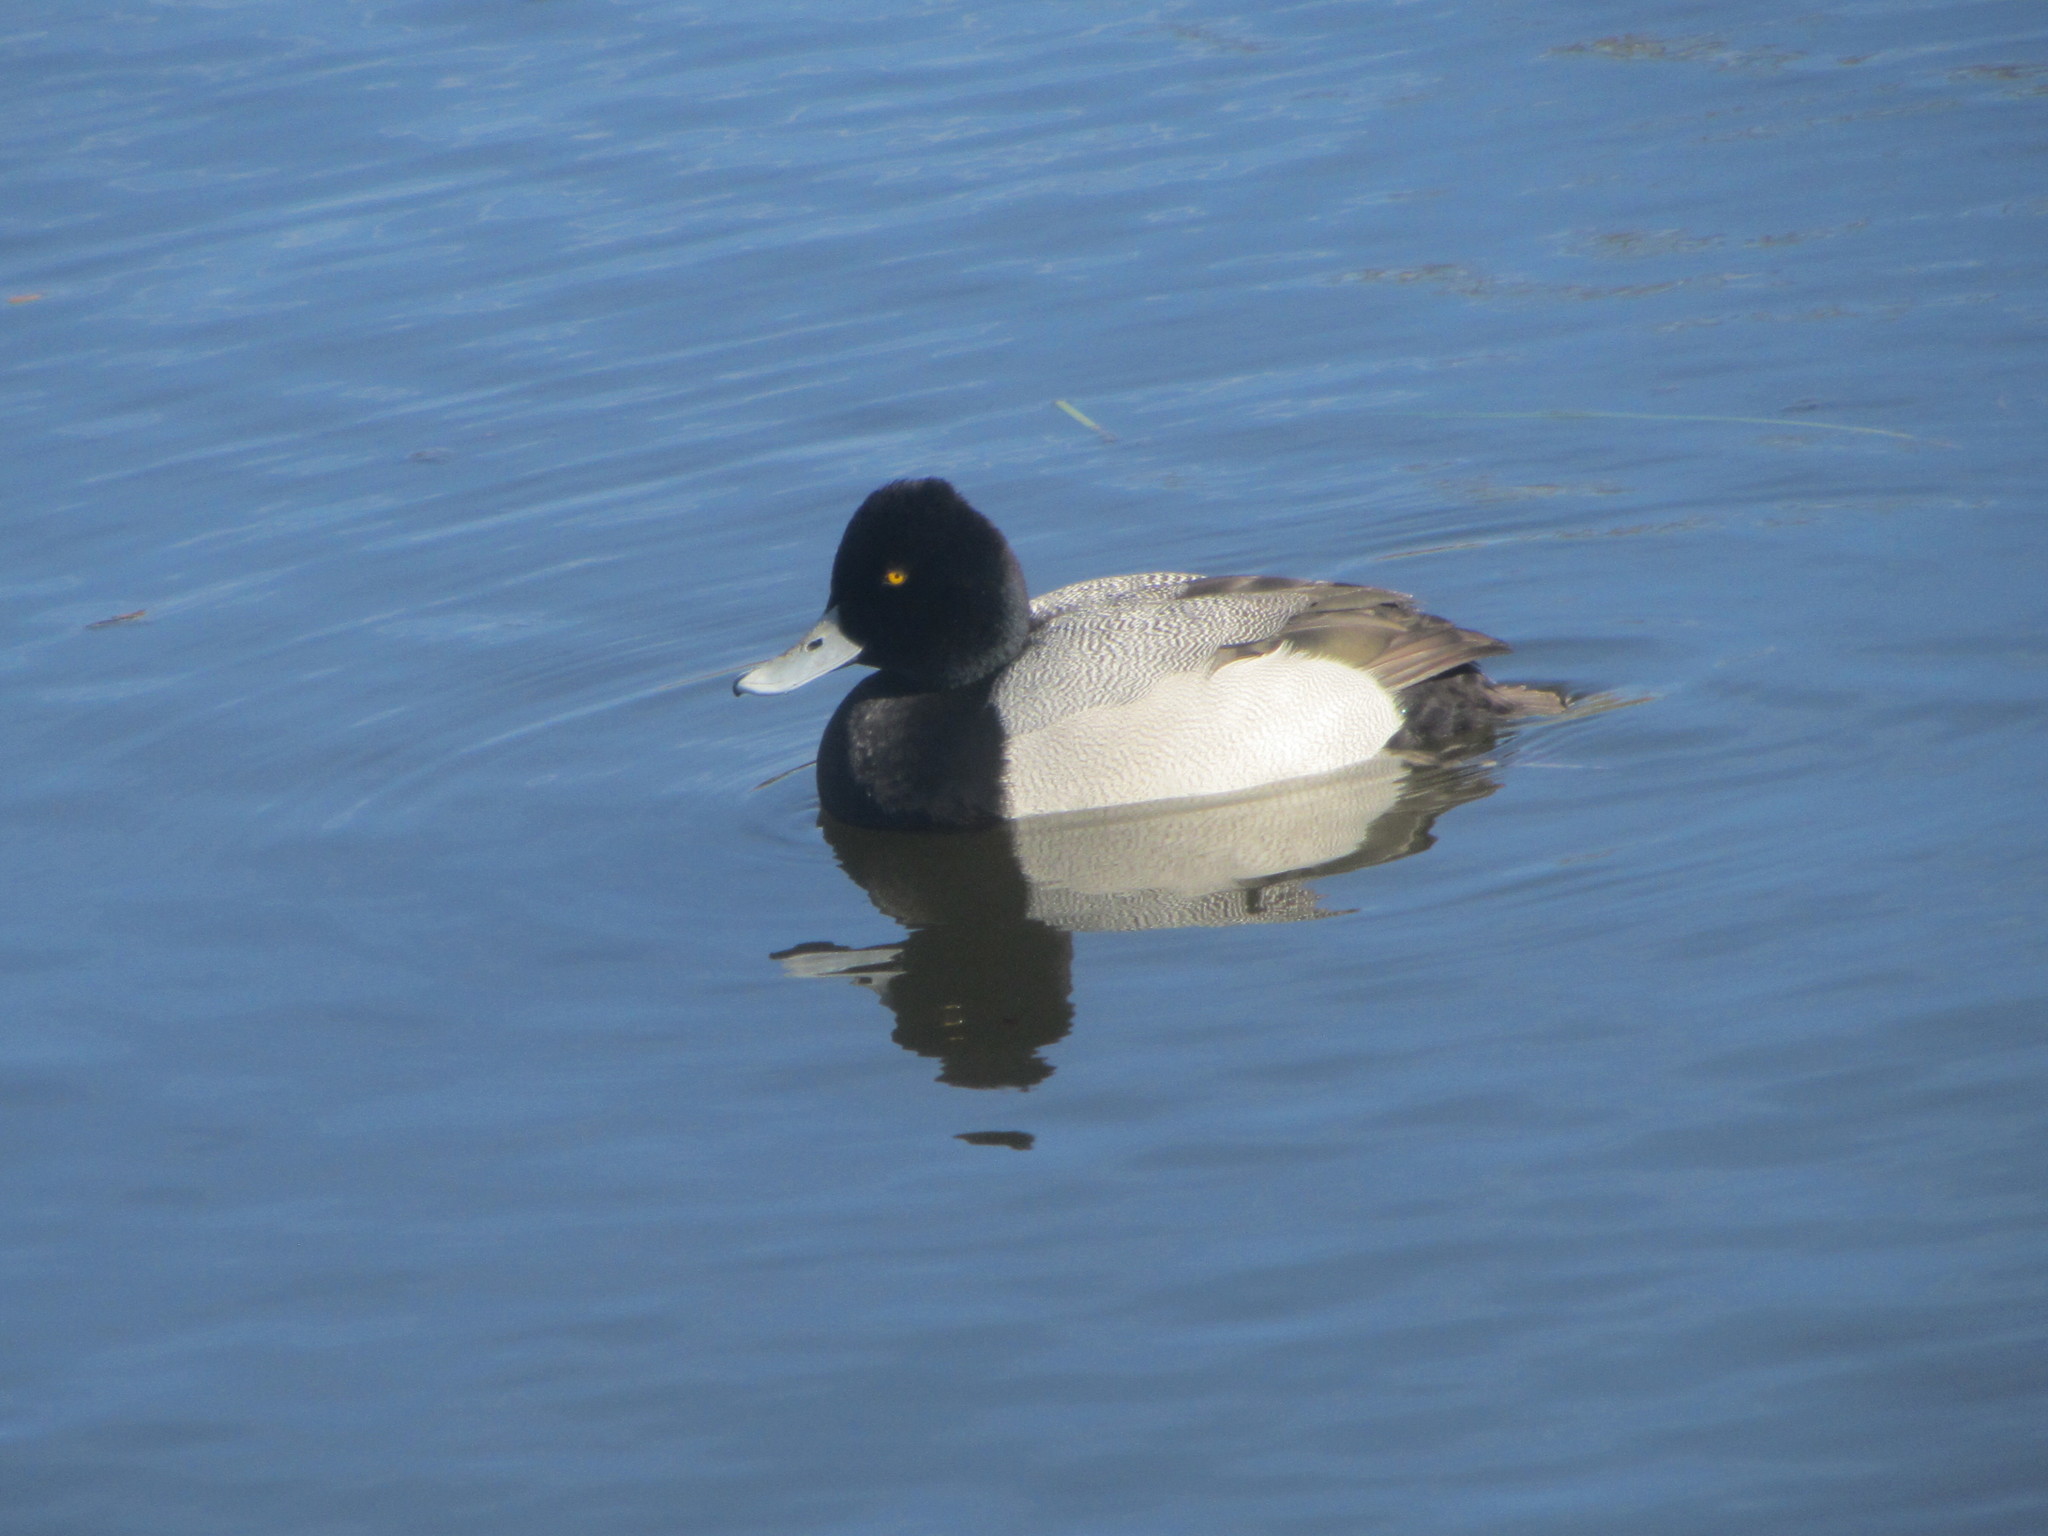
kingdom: Animalia
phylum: Chordata
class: Aves
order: Anseriformes
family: Anatidae
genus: Aythya
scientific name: Aythya affinis
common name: Lesser scaup
